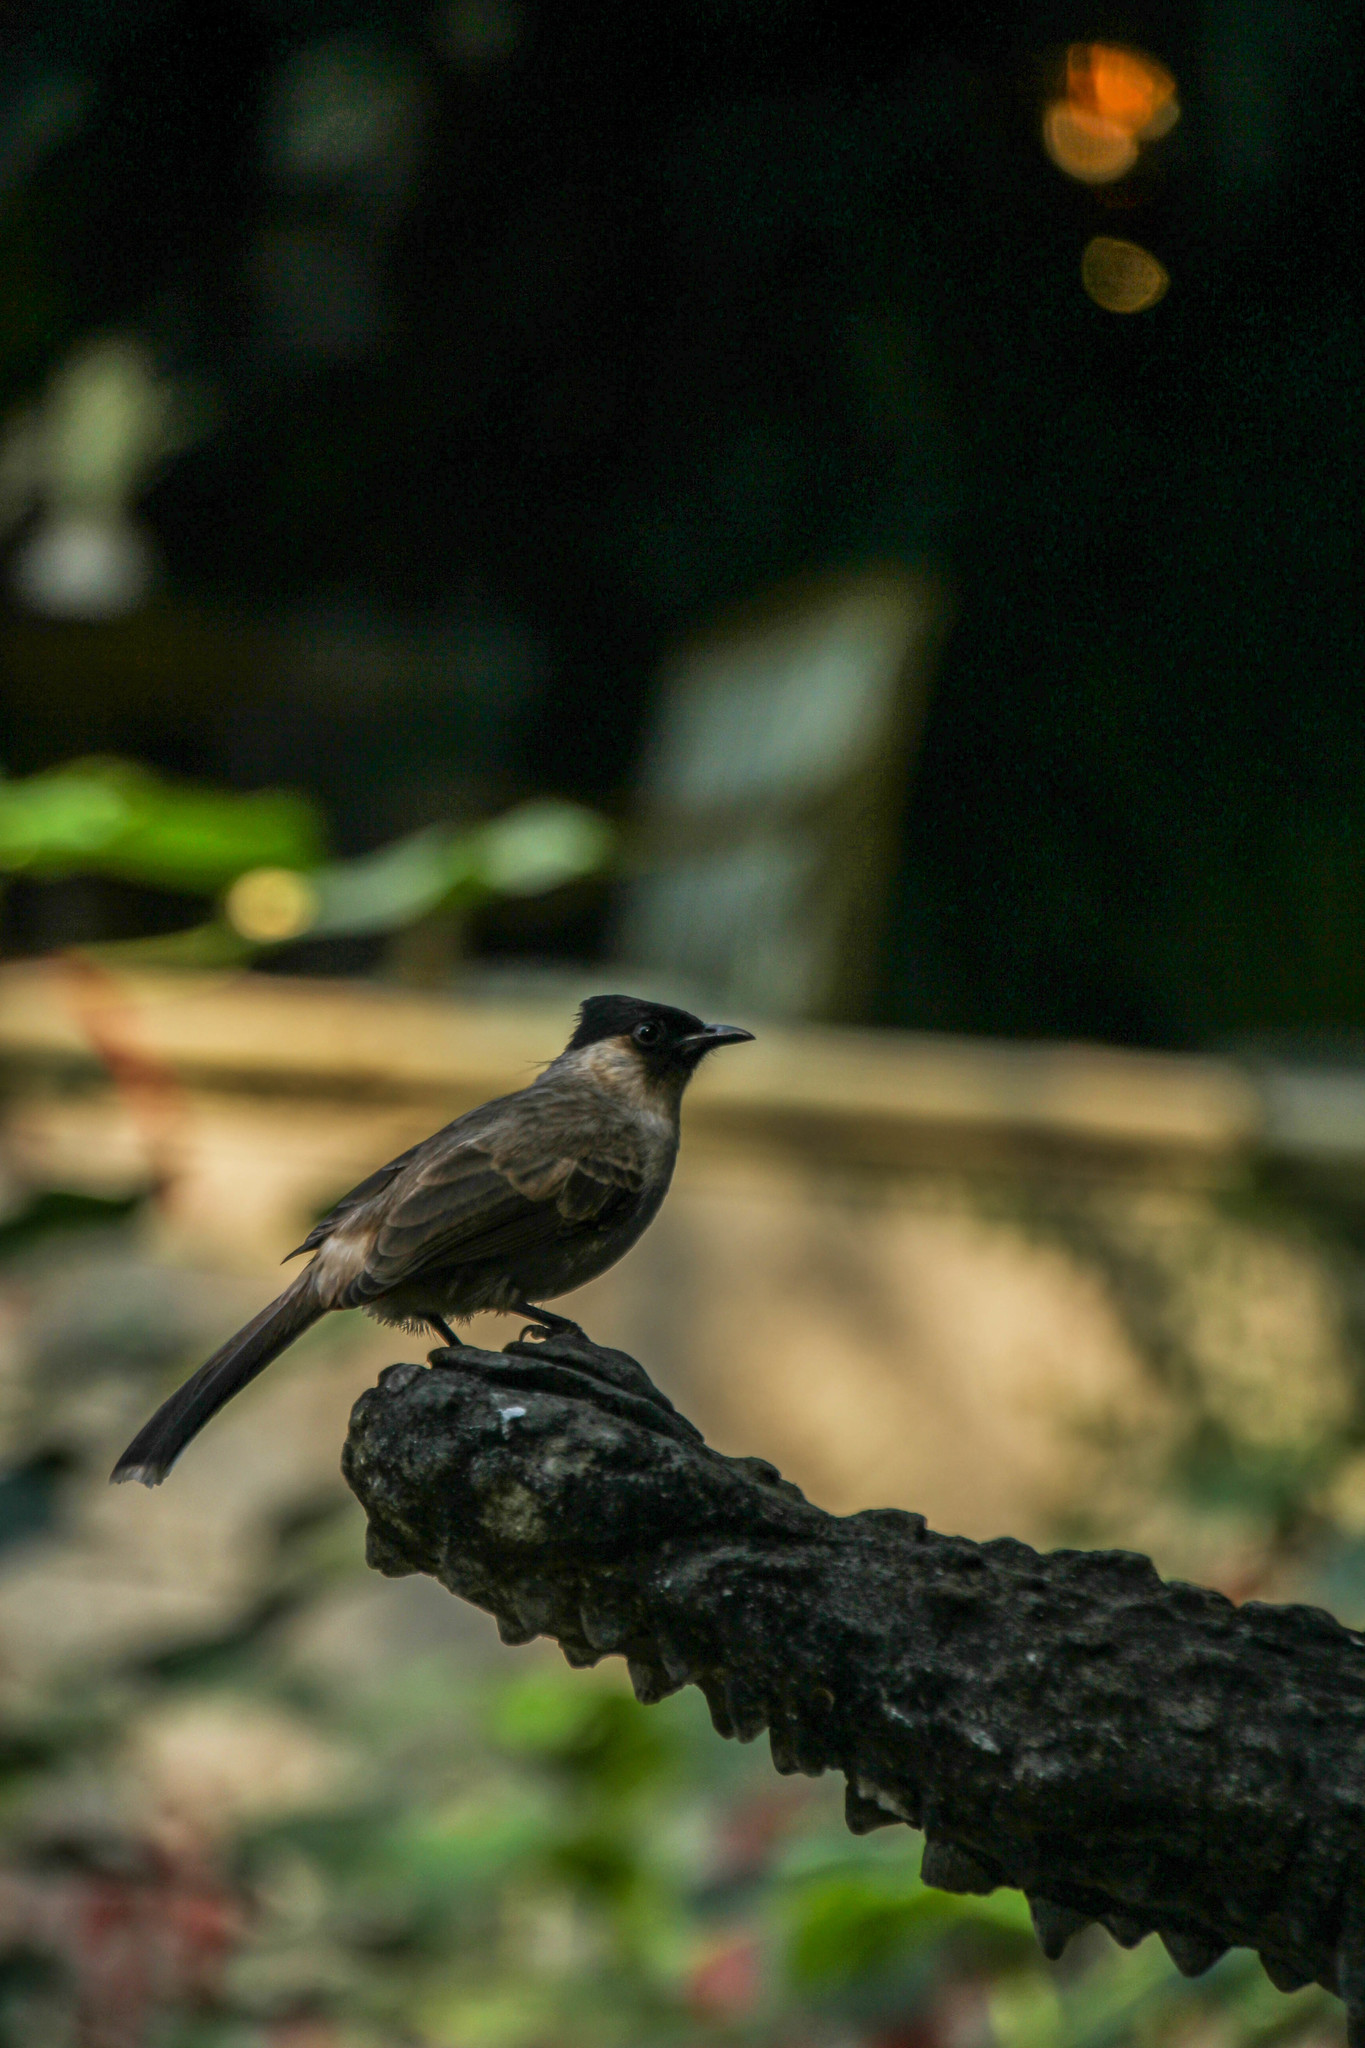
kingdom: Animalia
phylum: Chordata
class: Aves
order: Passeriformes
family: Pycnonotidae
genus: Pycnonotus
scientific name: Pycnonotus aurigaster
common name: Sooty-headed bulbul
